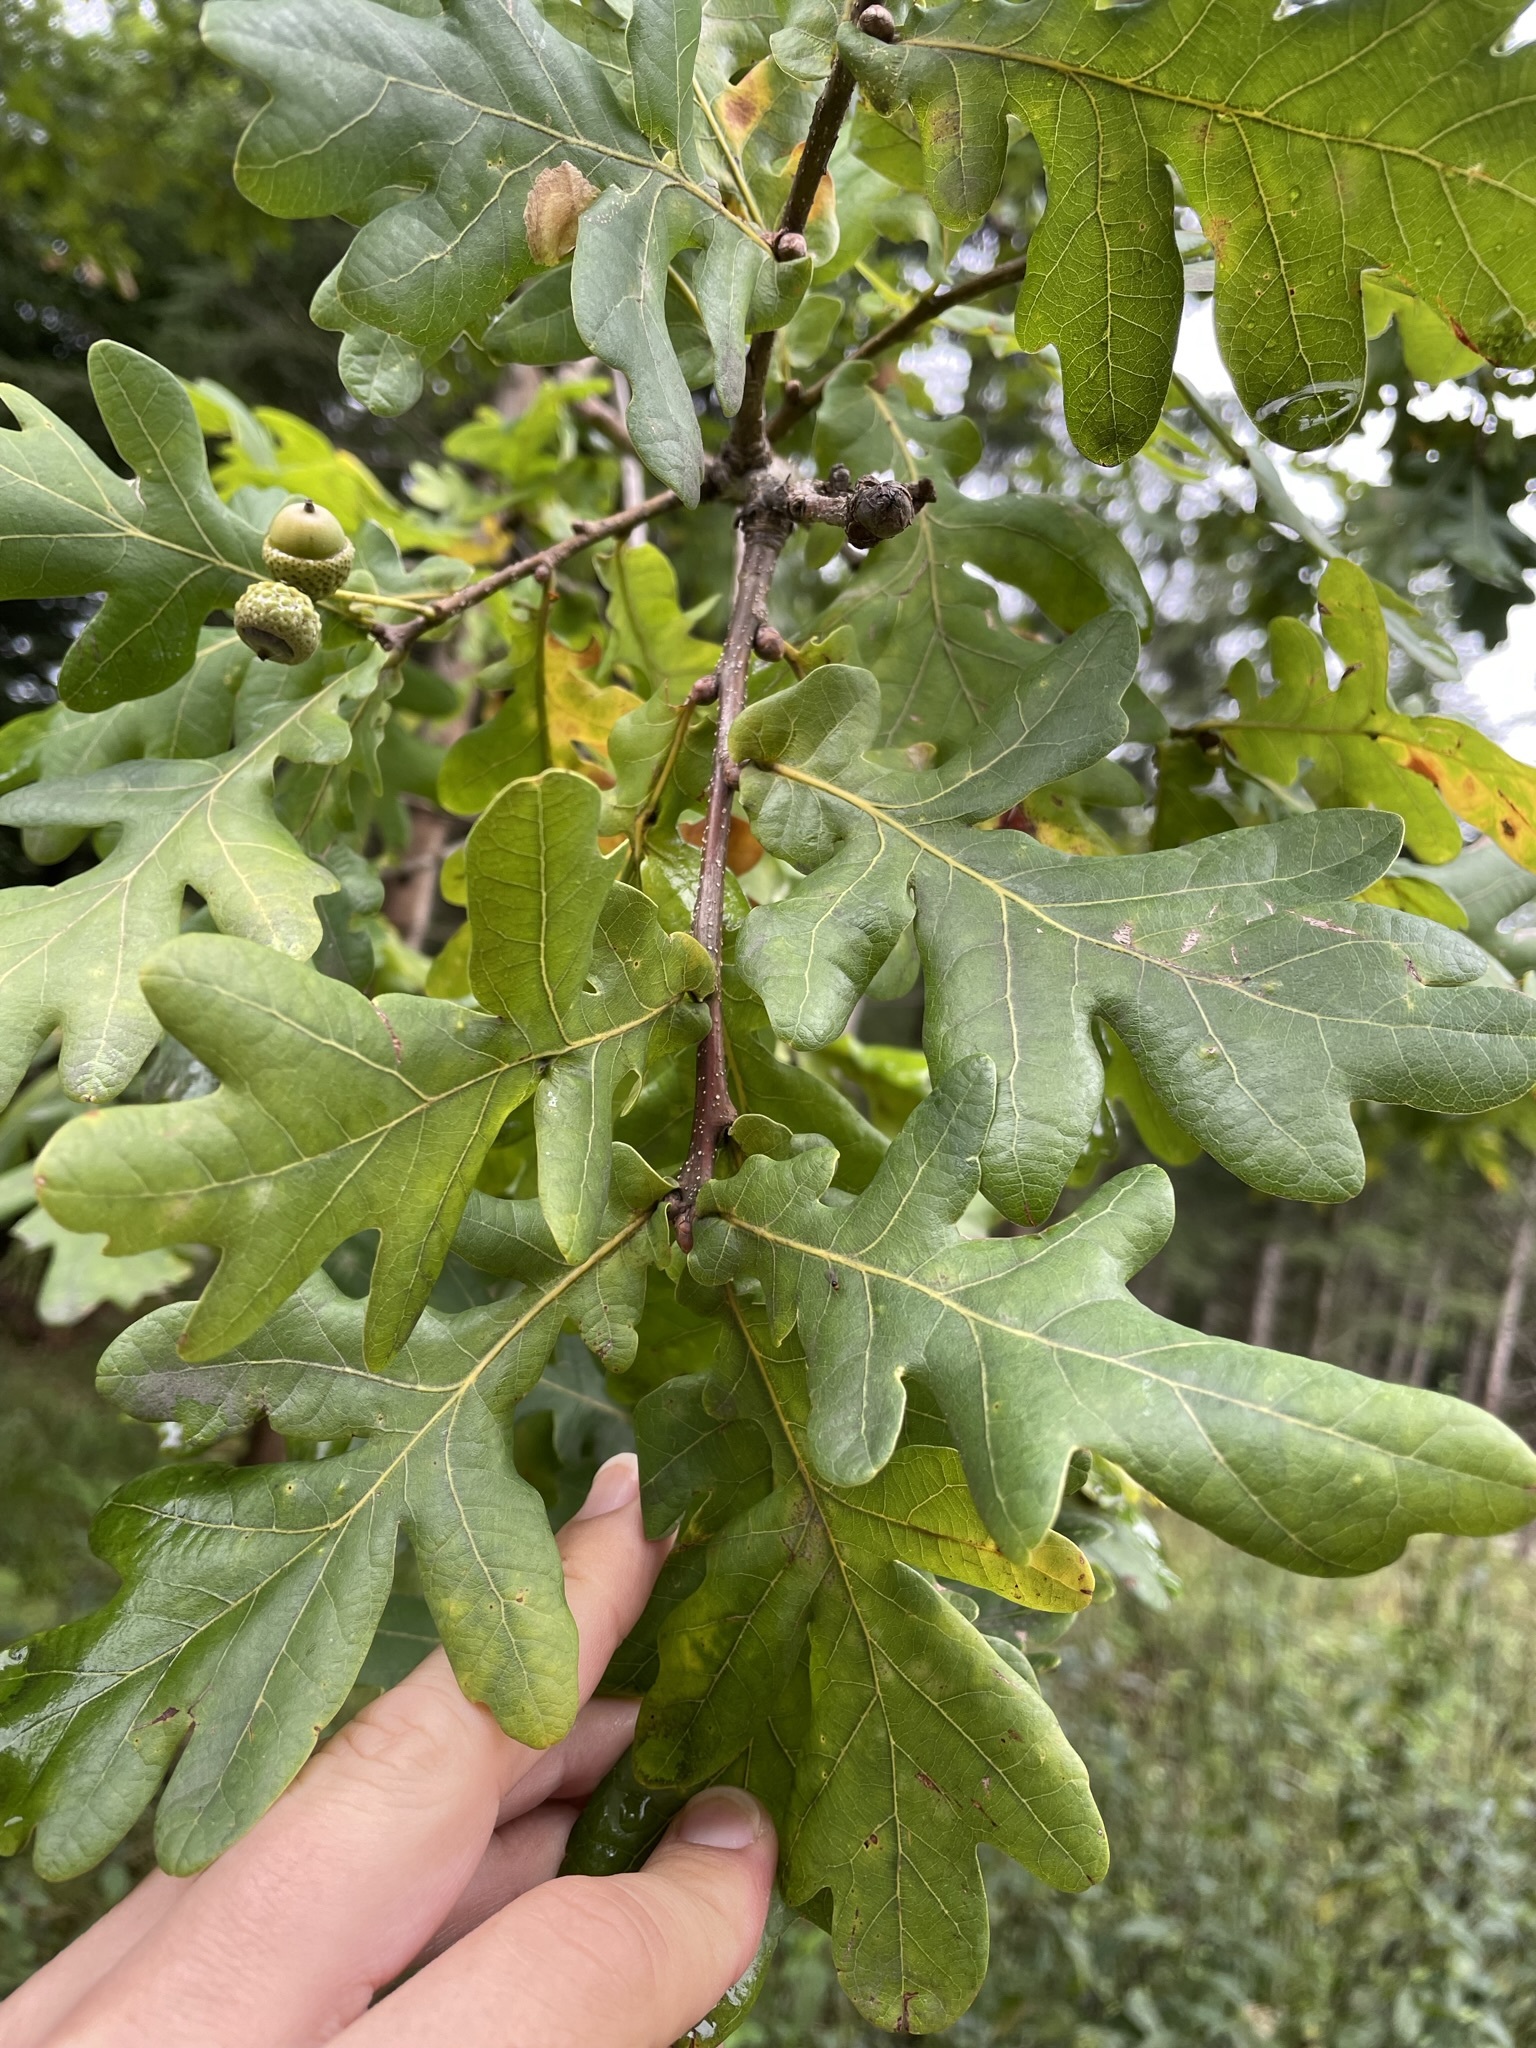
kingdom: Plantae
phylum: Tracheophyta
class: Magnoliopsida
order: Fagales
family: Fagaceae
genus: Quercus
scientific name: Quercus robur
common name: Pedunculate oak
